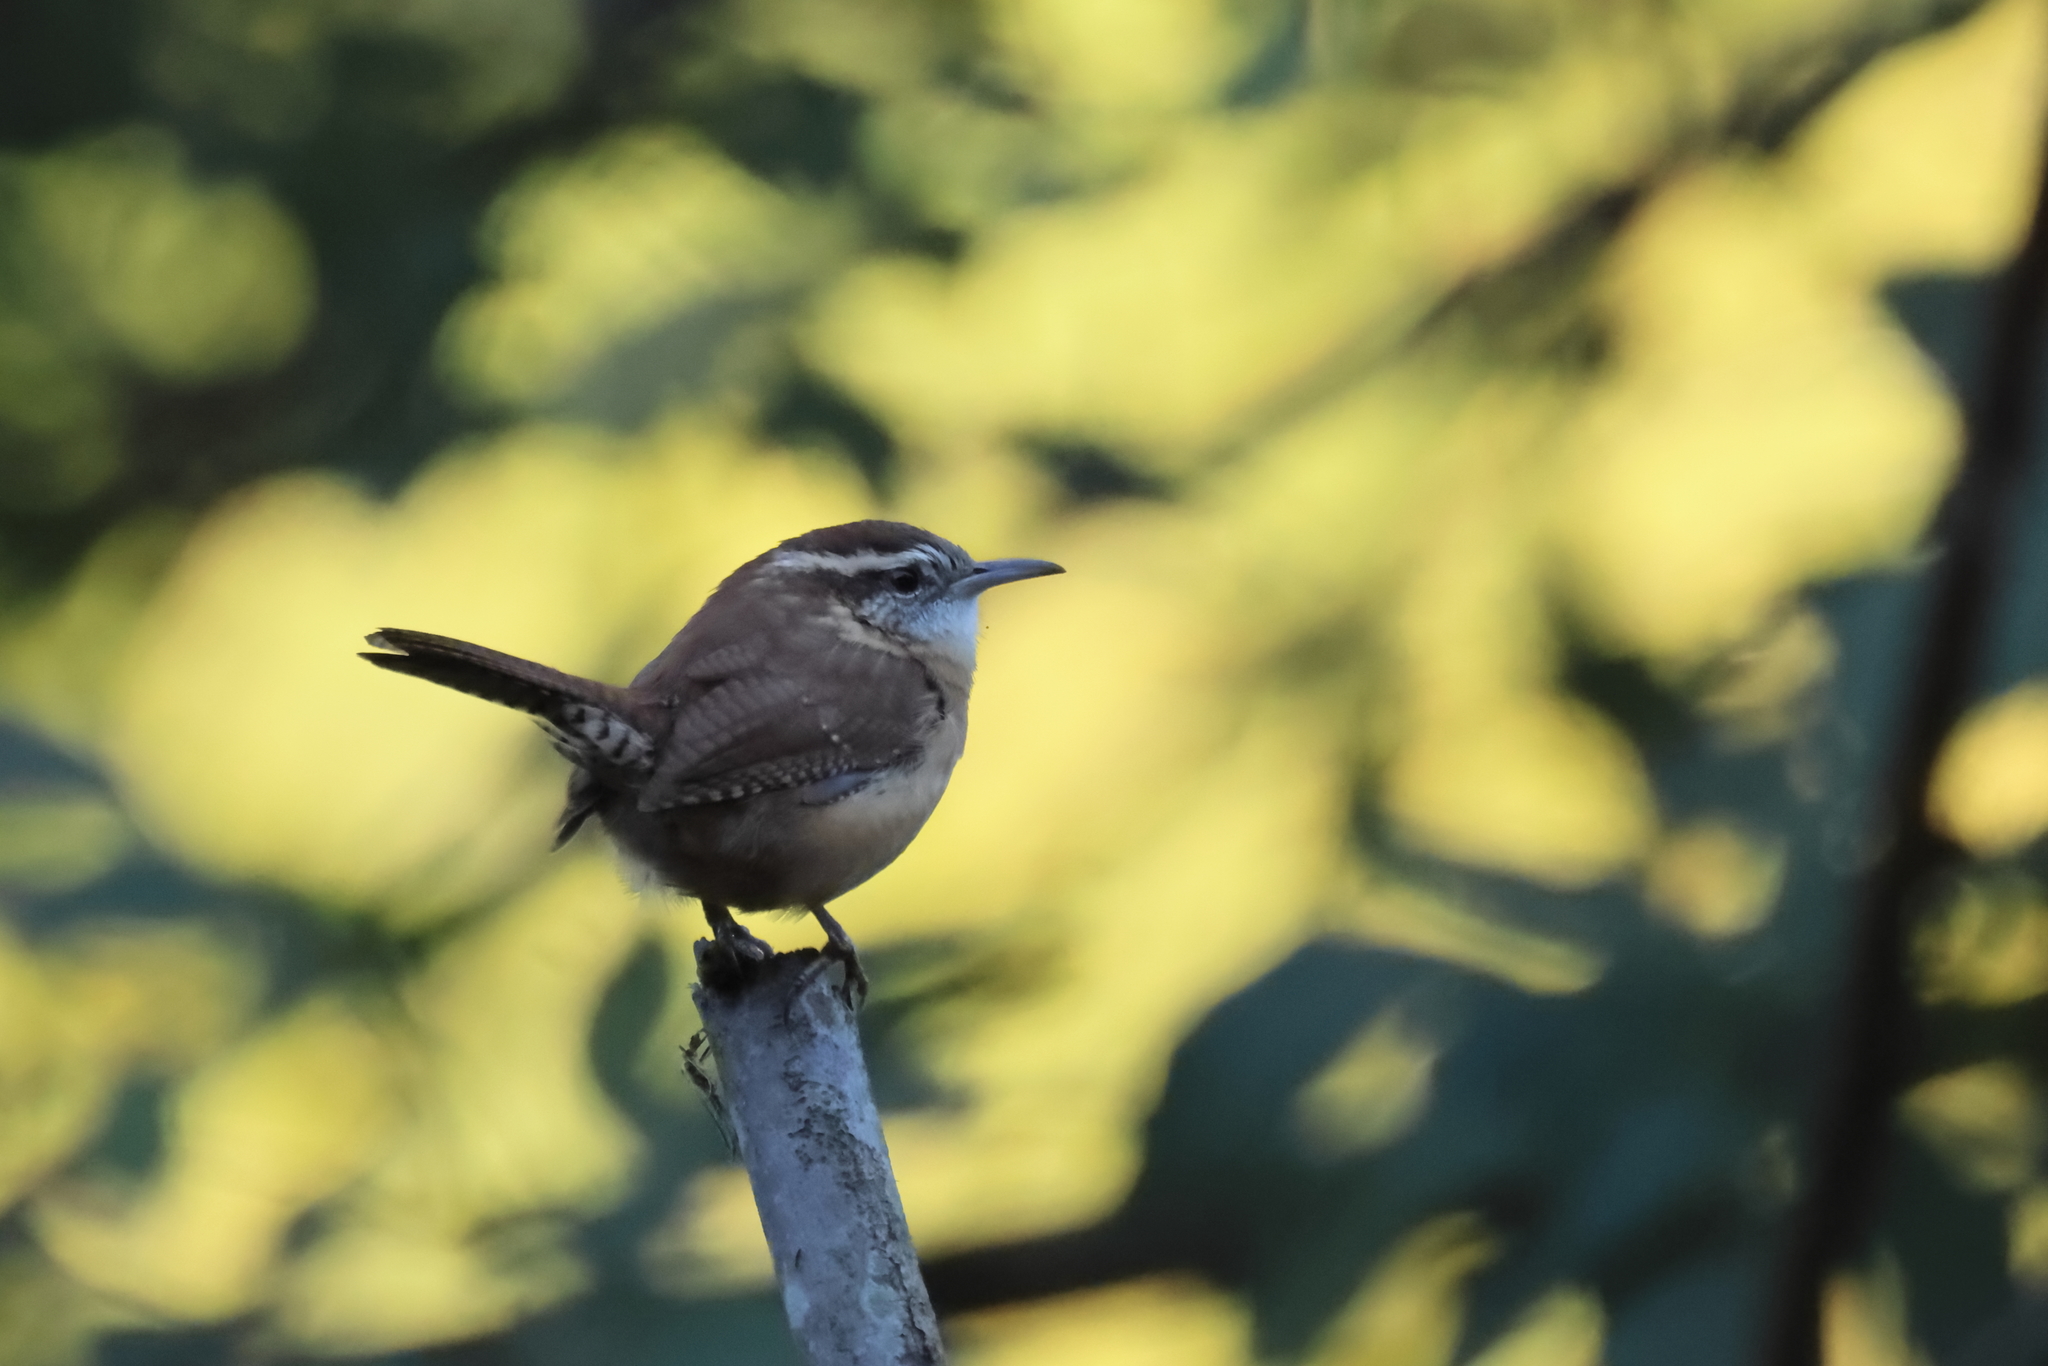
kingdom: Animalia
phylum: Chordata
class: Aves
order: Passeriformes
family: Troglodytidae
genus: Thryothorus
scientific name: Thryothorus ludovicianus
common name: Carolina wren
